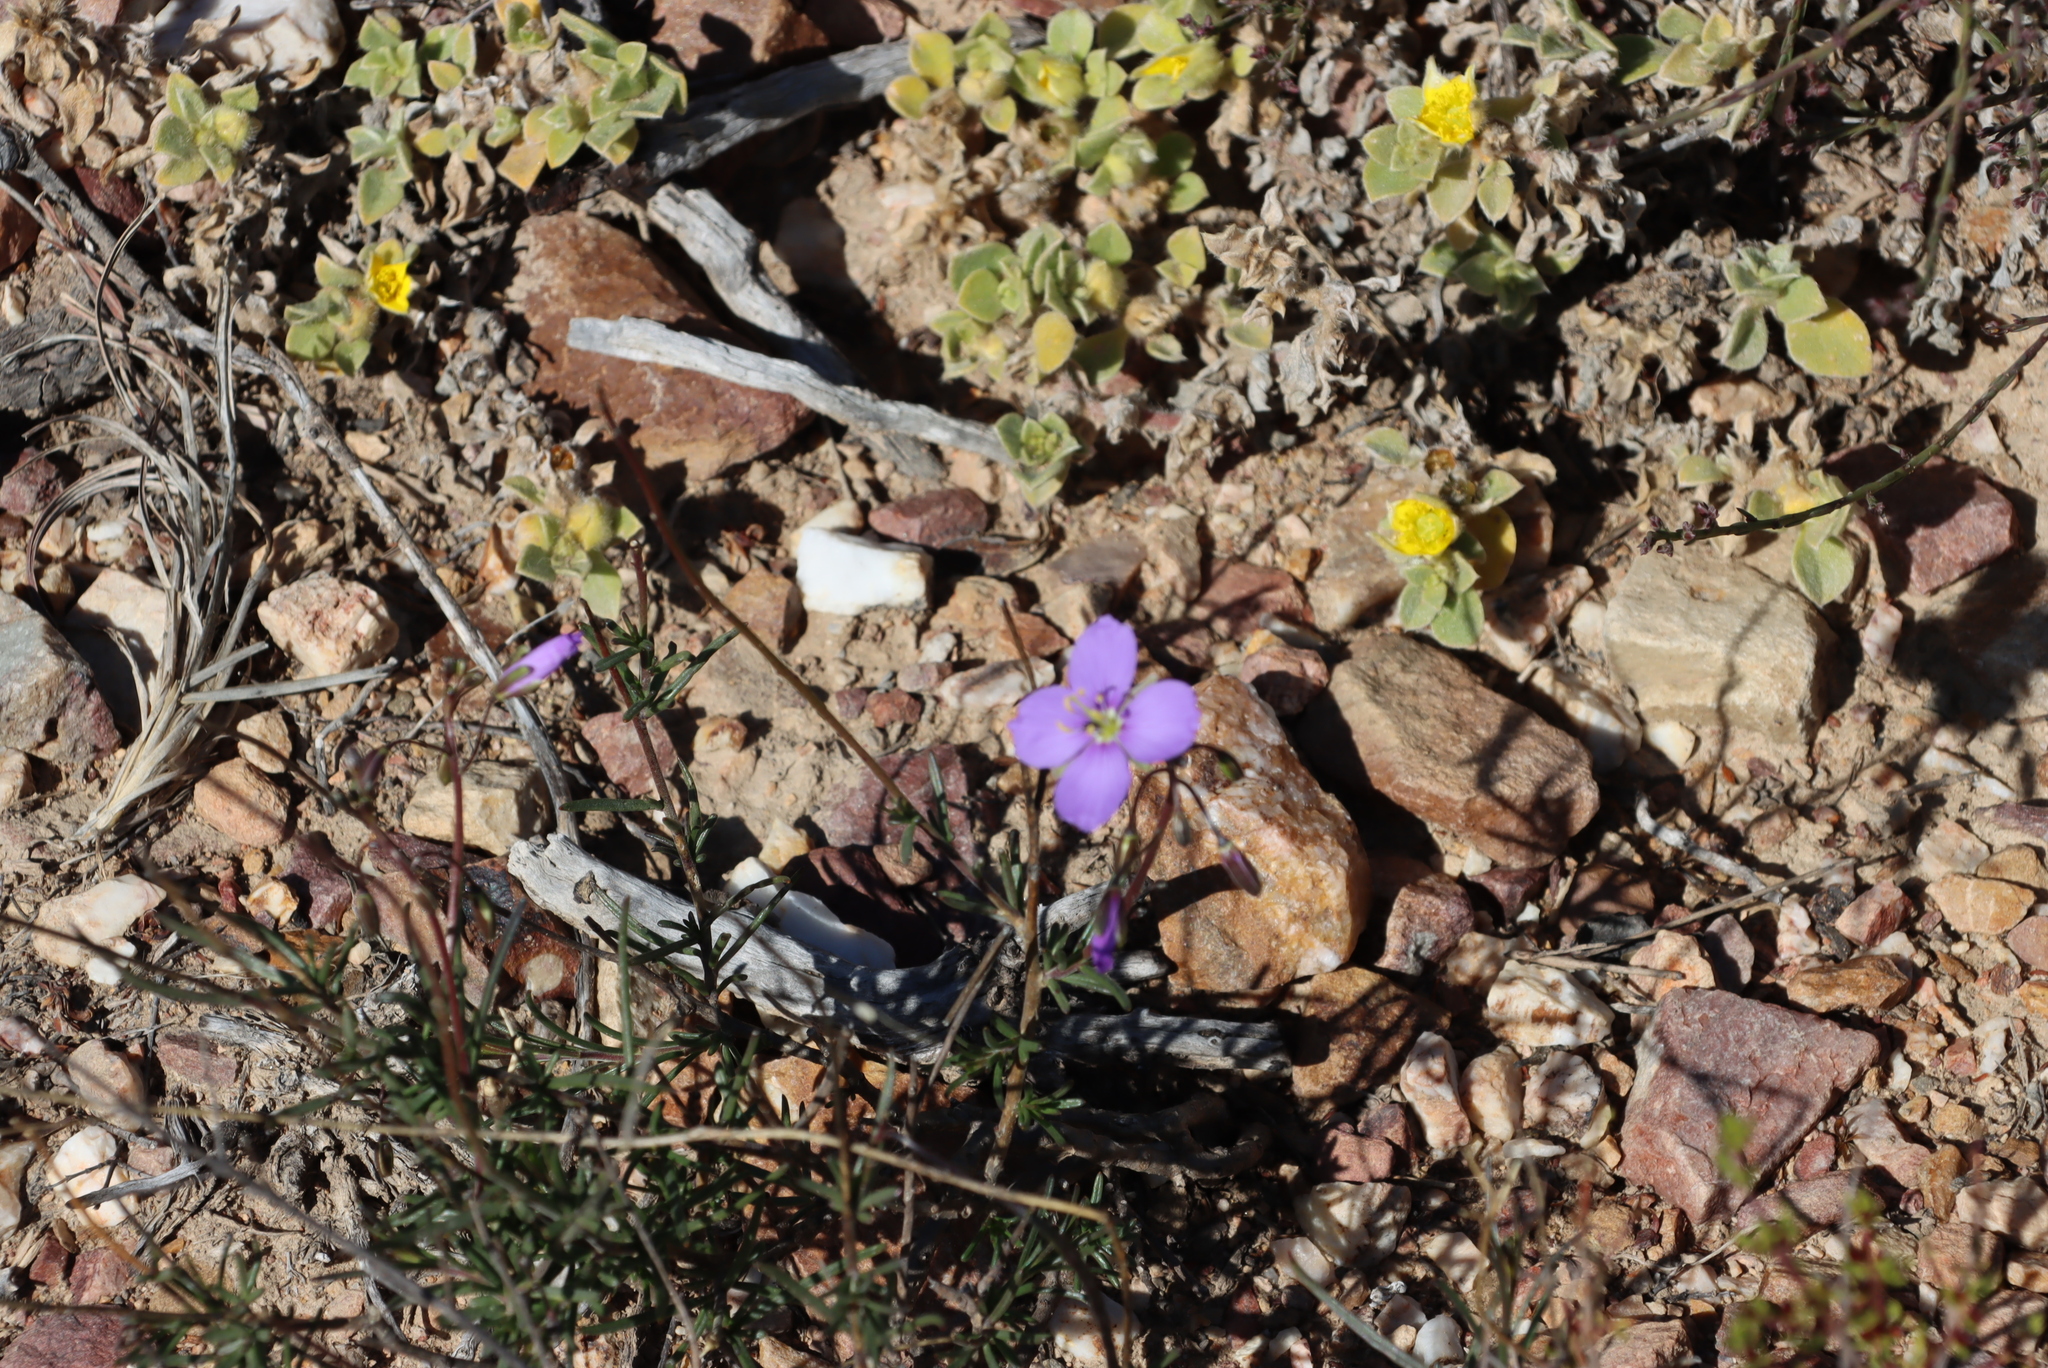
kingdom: Plantae
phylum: Tracheophyta
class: Magnoliopsida
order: Brassicales
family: Brassicaceae
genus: Heliophila
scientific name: Heliophila suavissima
